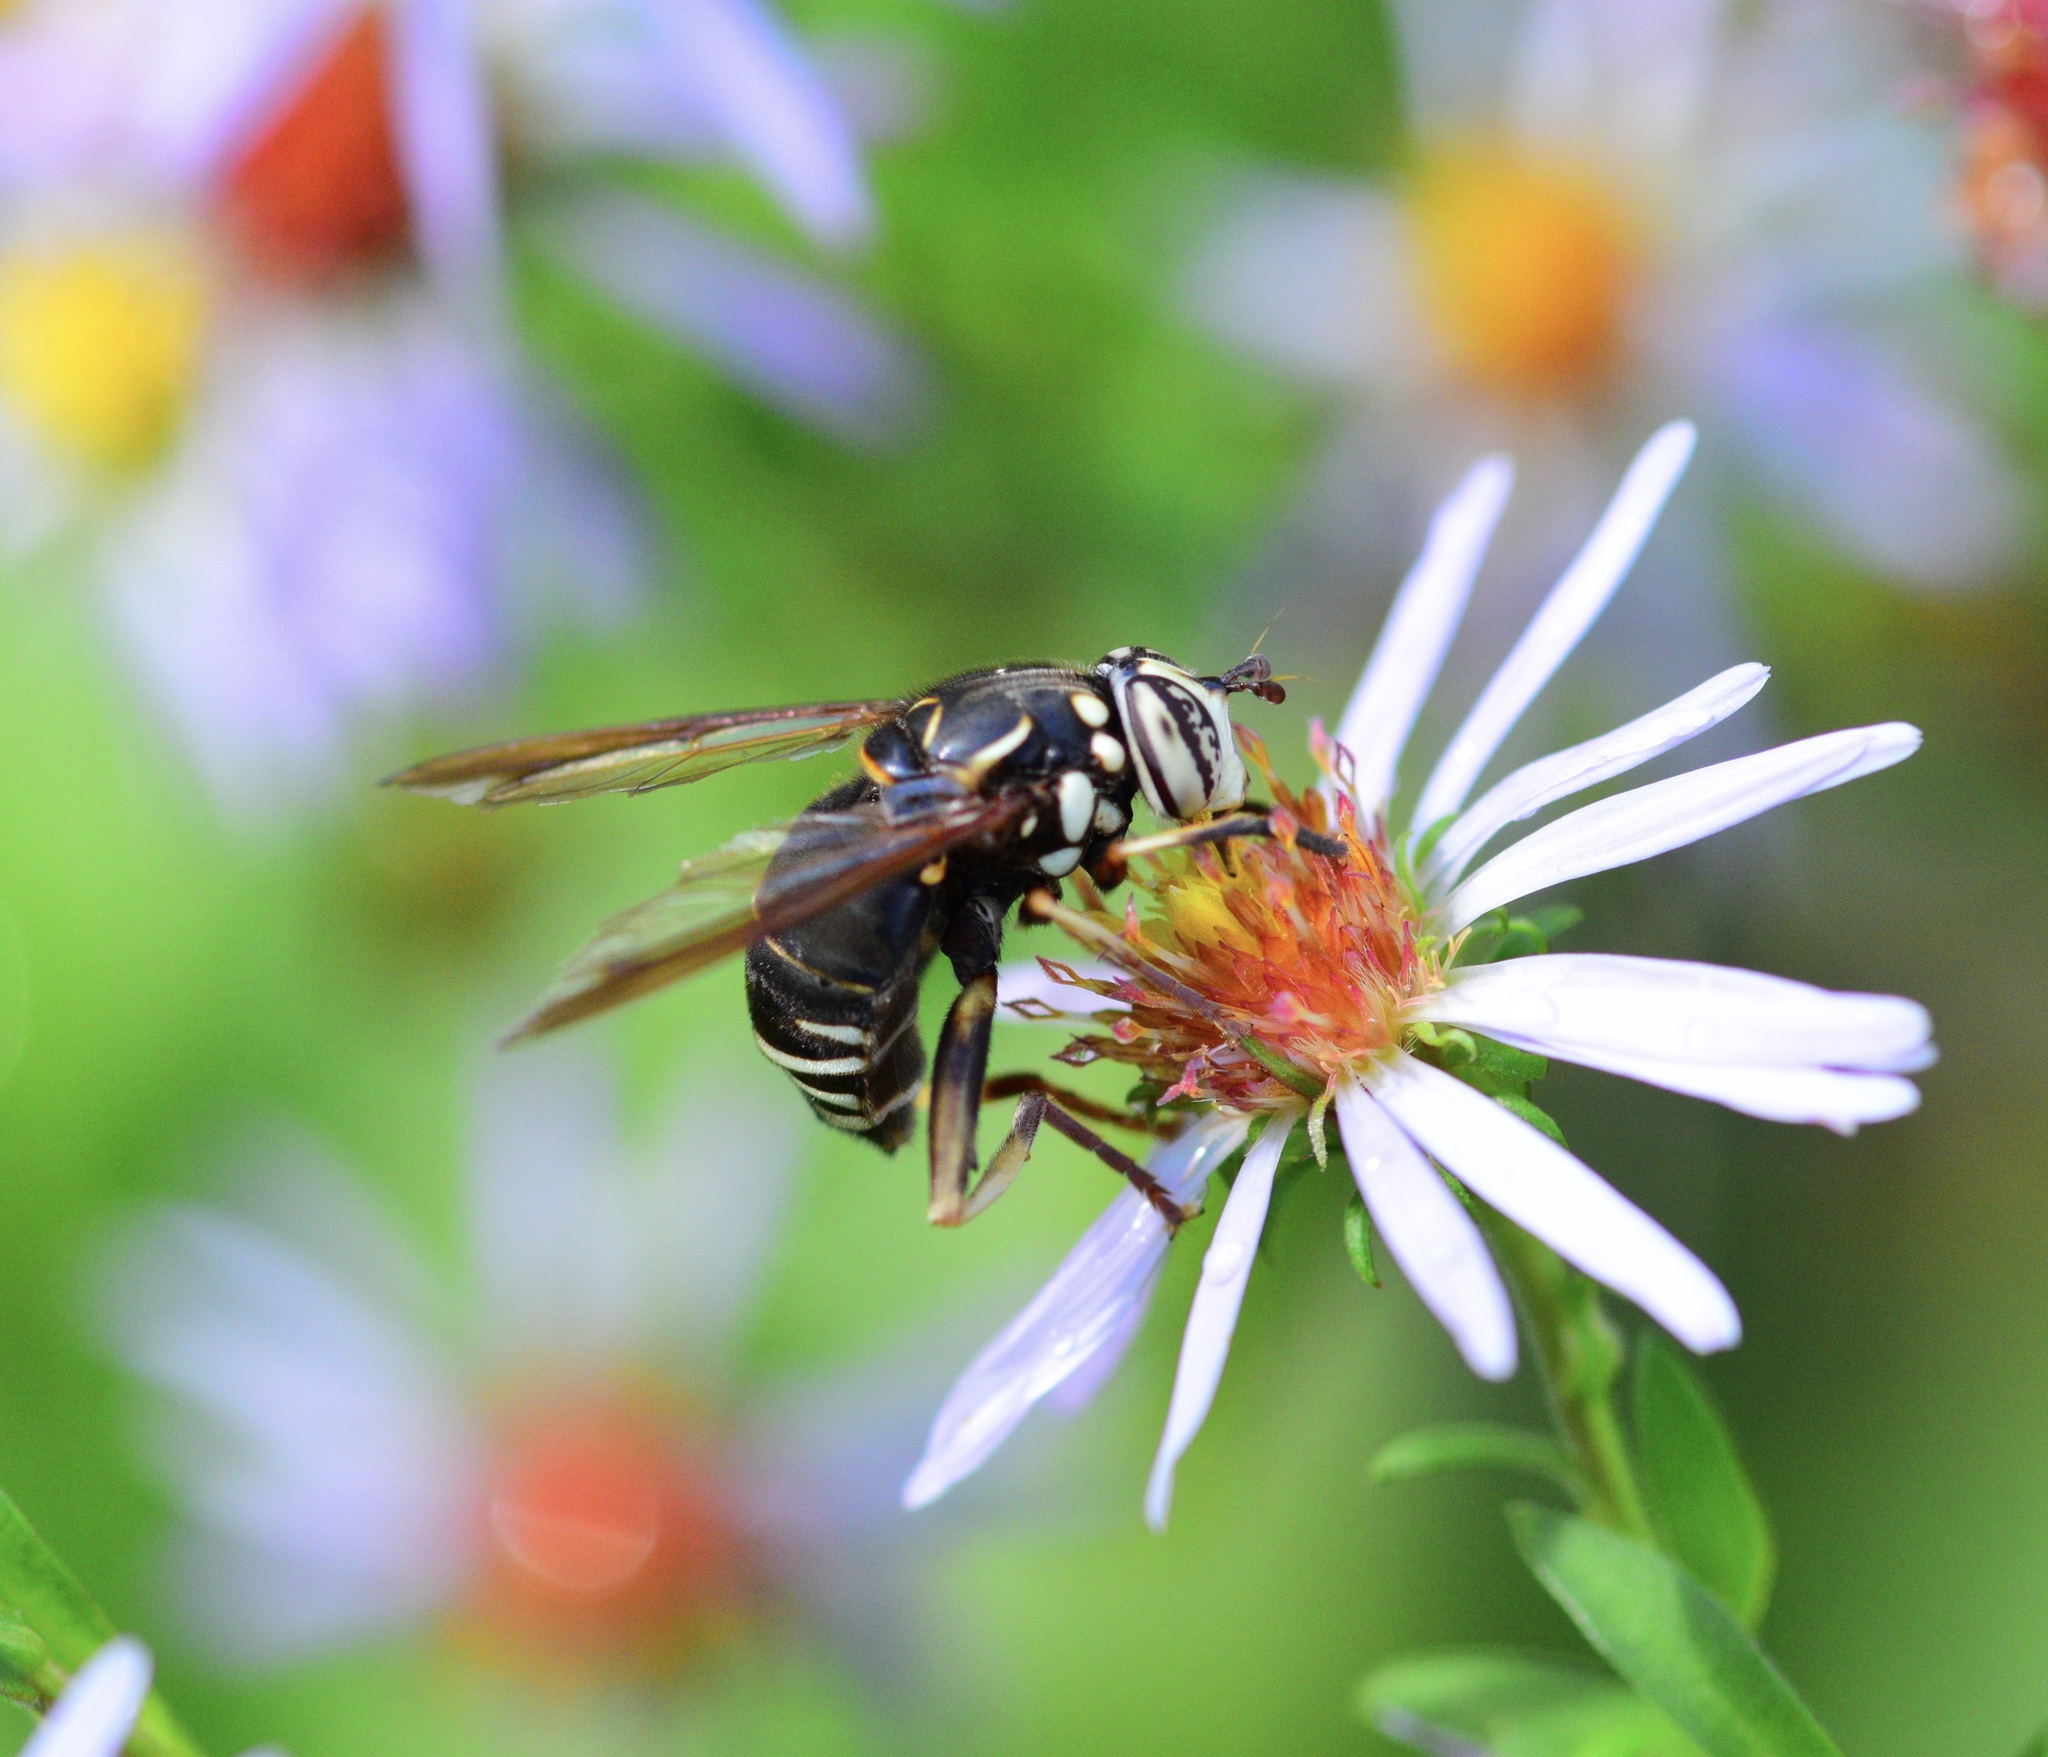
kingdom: Animalia
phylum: Arthropoda
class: Insecta
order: Diptera
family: Syrphidae
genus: Spilomyia
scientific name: Spilomyia fusca
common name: Bald-faced hornet fly
